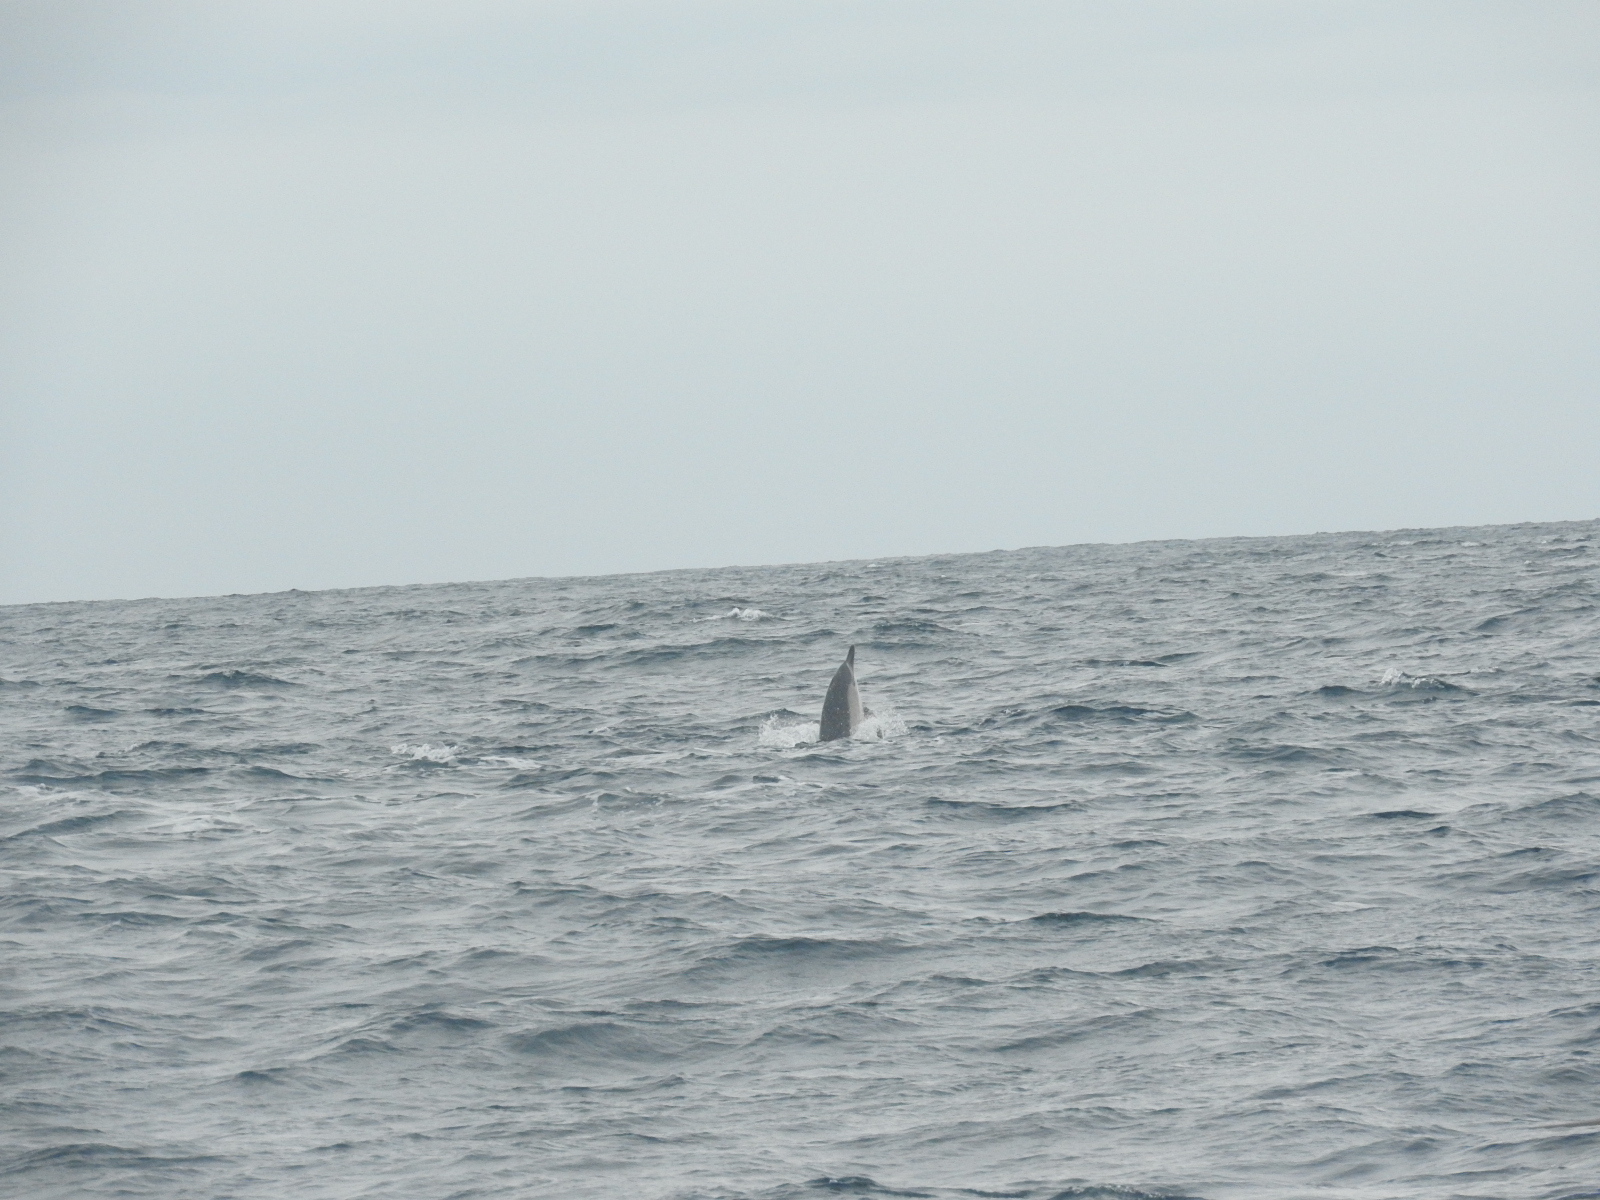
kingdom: Animalia
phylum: Chordata
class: Mammalia
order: Cetacea
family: Delphinidae
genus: Delphinus
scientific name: Delphinus delphis
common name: Common dolphin
